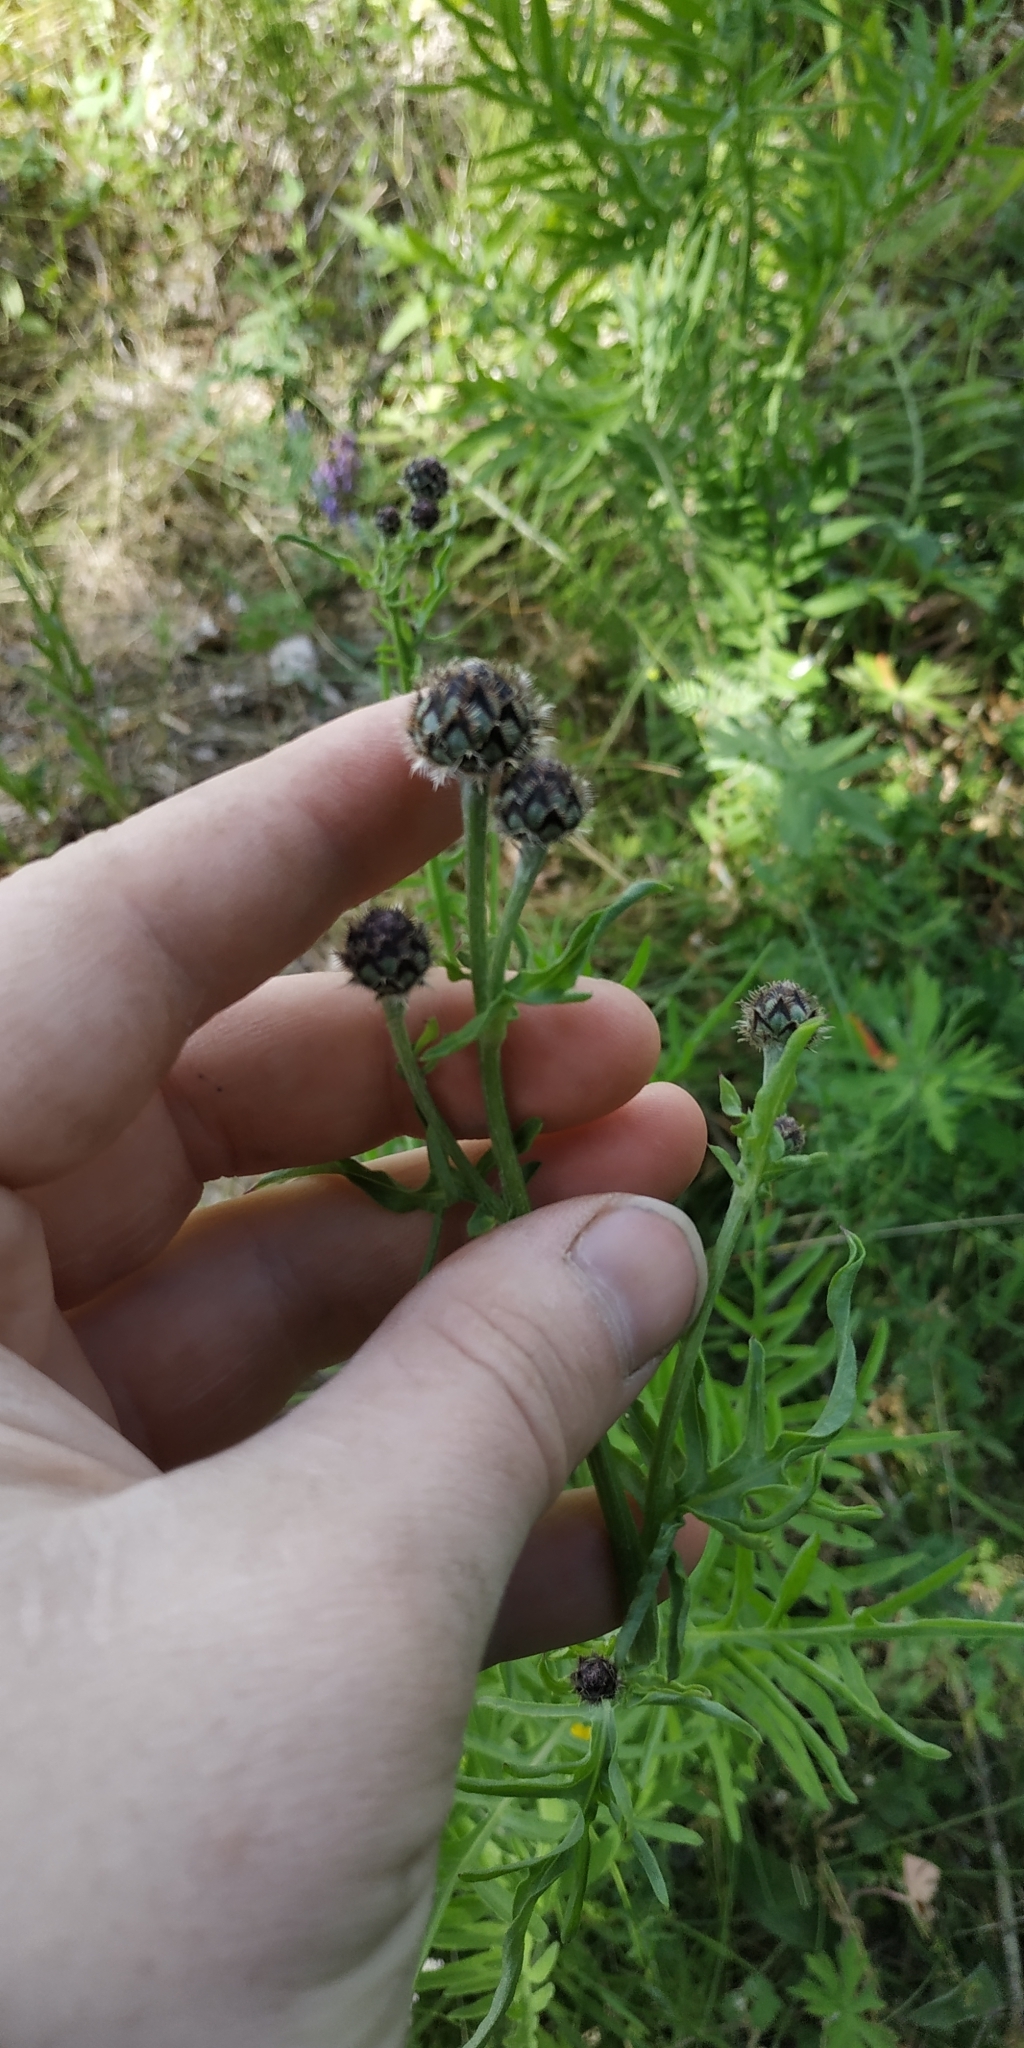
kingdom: Plantae
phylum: Tracheophyta
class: Magnoliopsida
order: Asterales
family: Asteraceae
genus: Centaurea
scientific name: Centaurea scabiosa
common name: Greater knapweed
